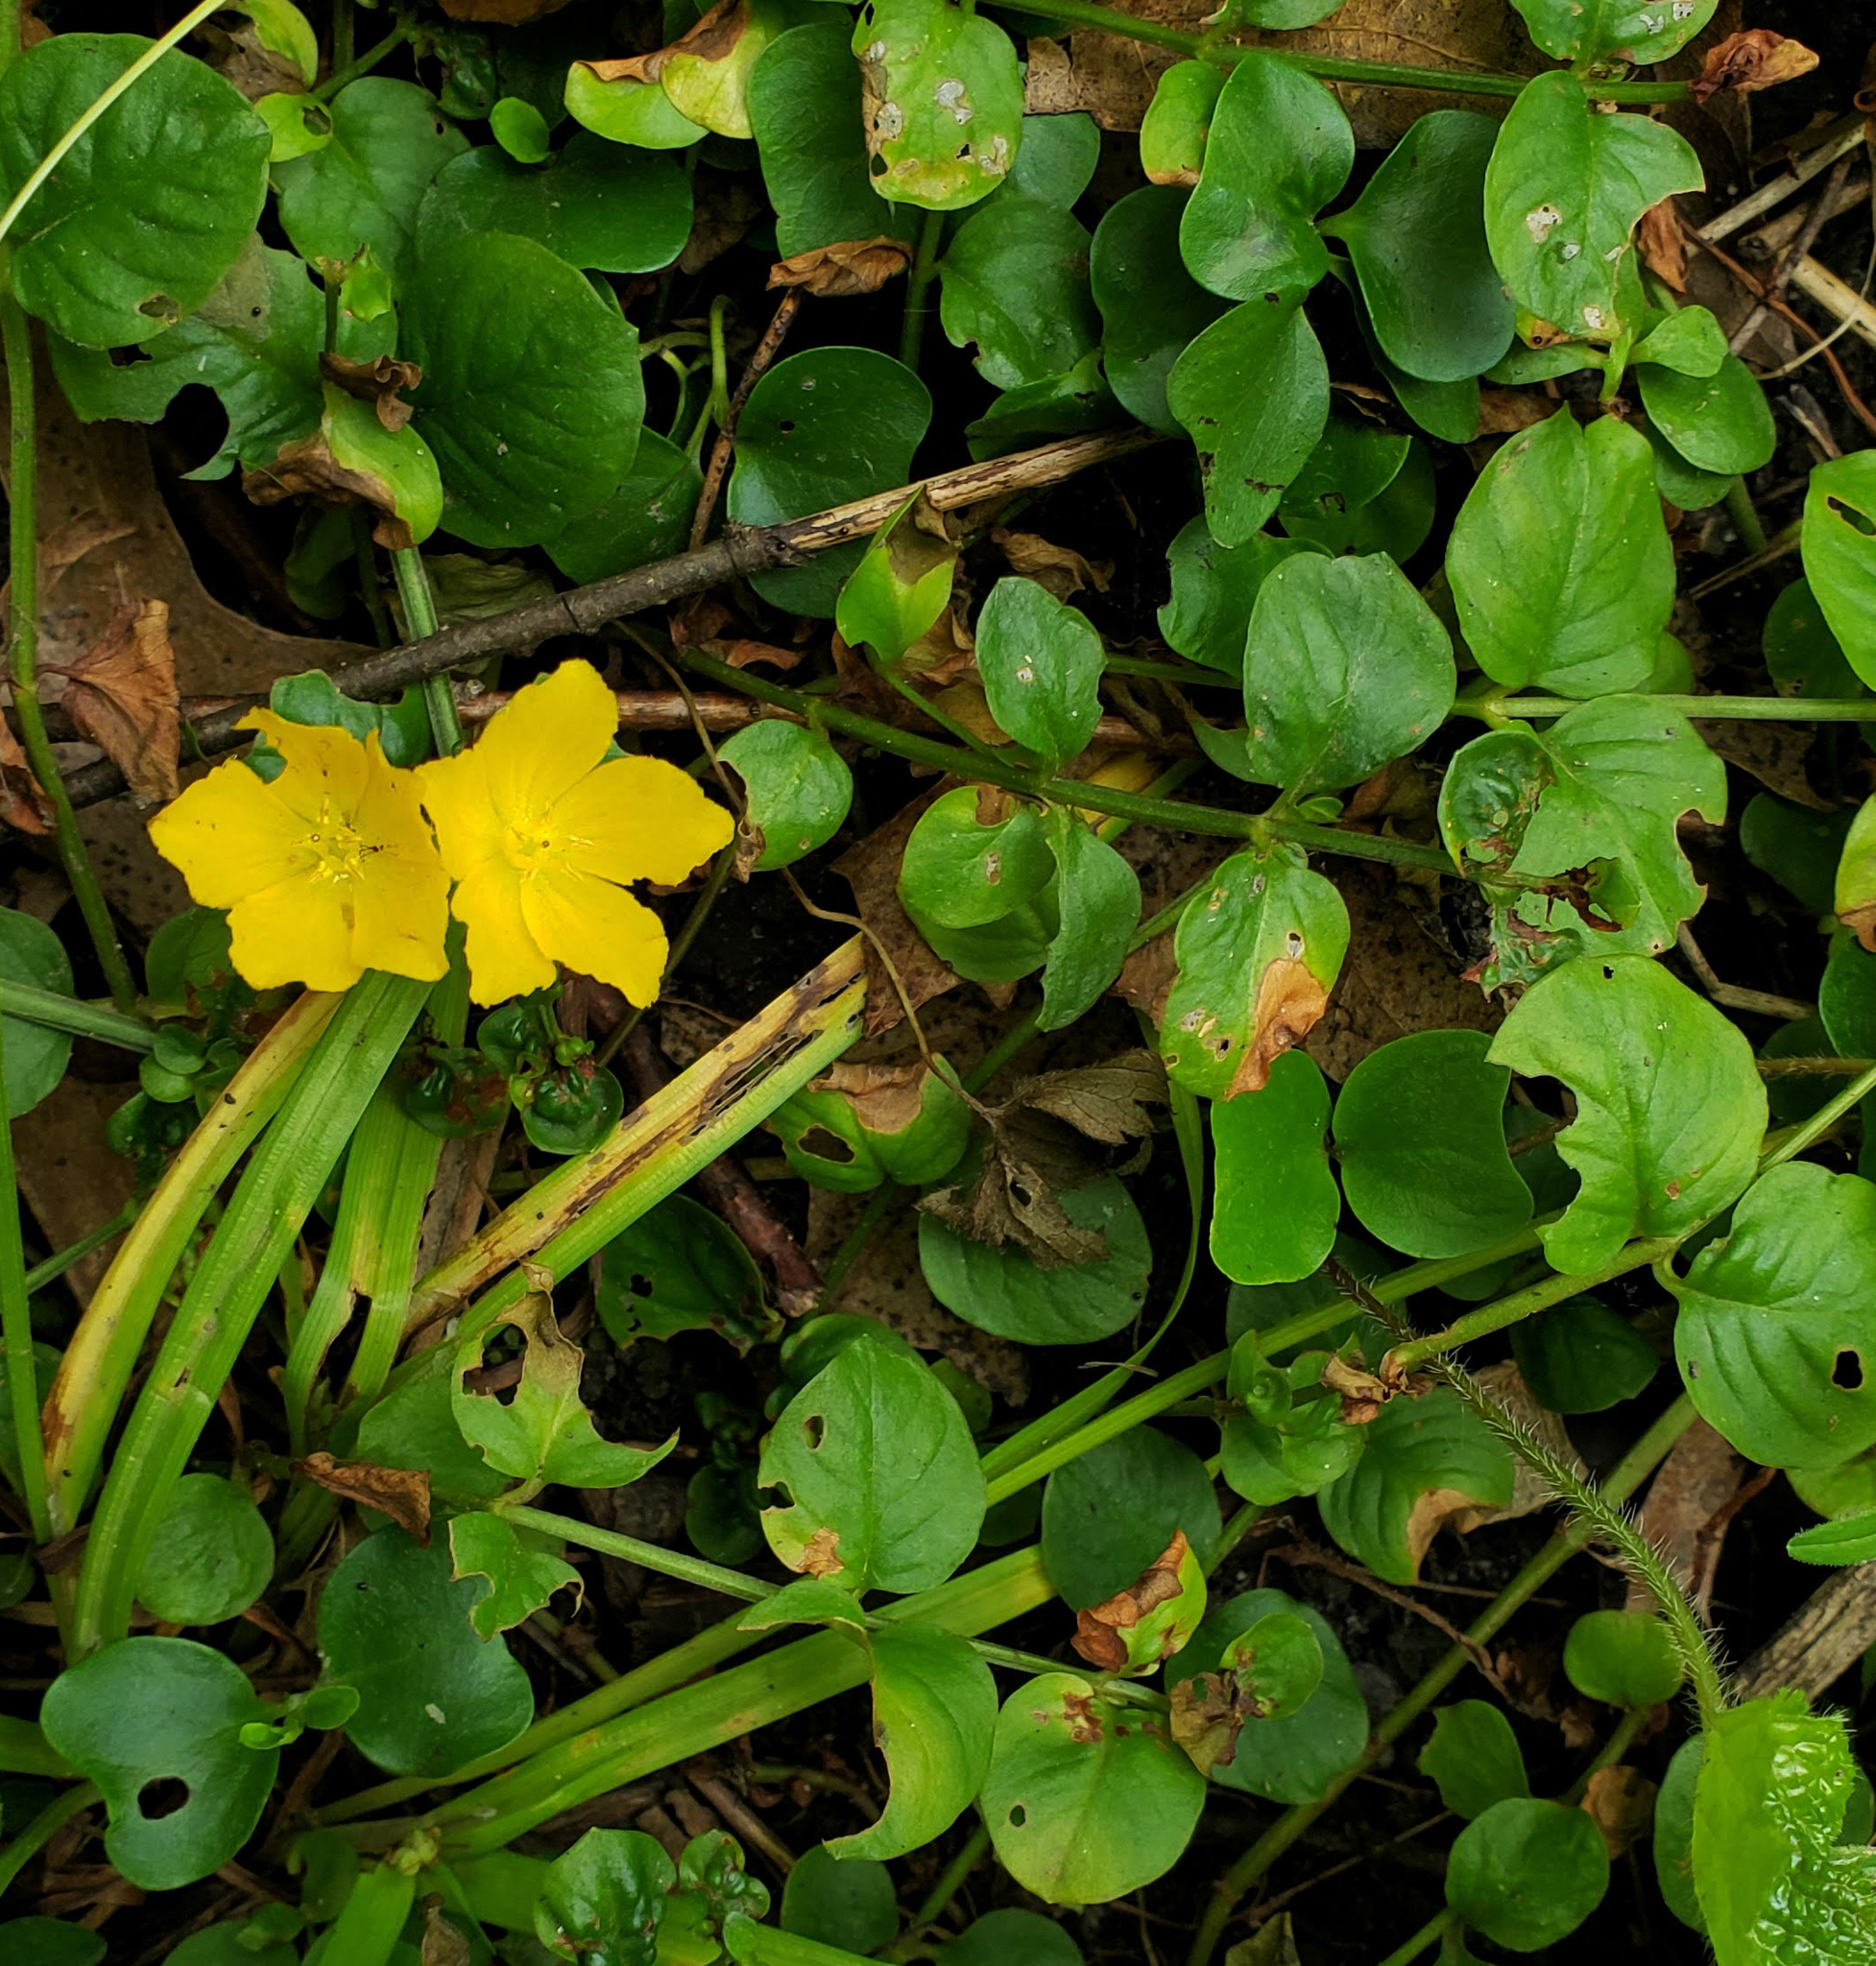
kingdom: Plantae
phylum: Tracheophyta
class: Magnoliopsida
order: Ericales
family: Primulaceae
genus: Lysimachia
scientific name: Lysimachia nummularia
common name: Moneywort
